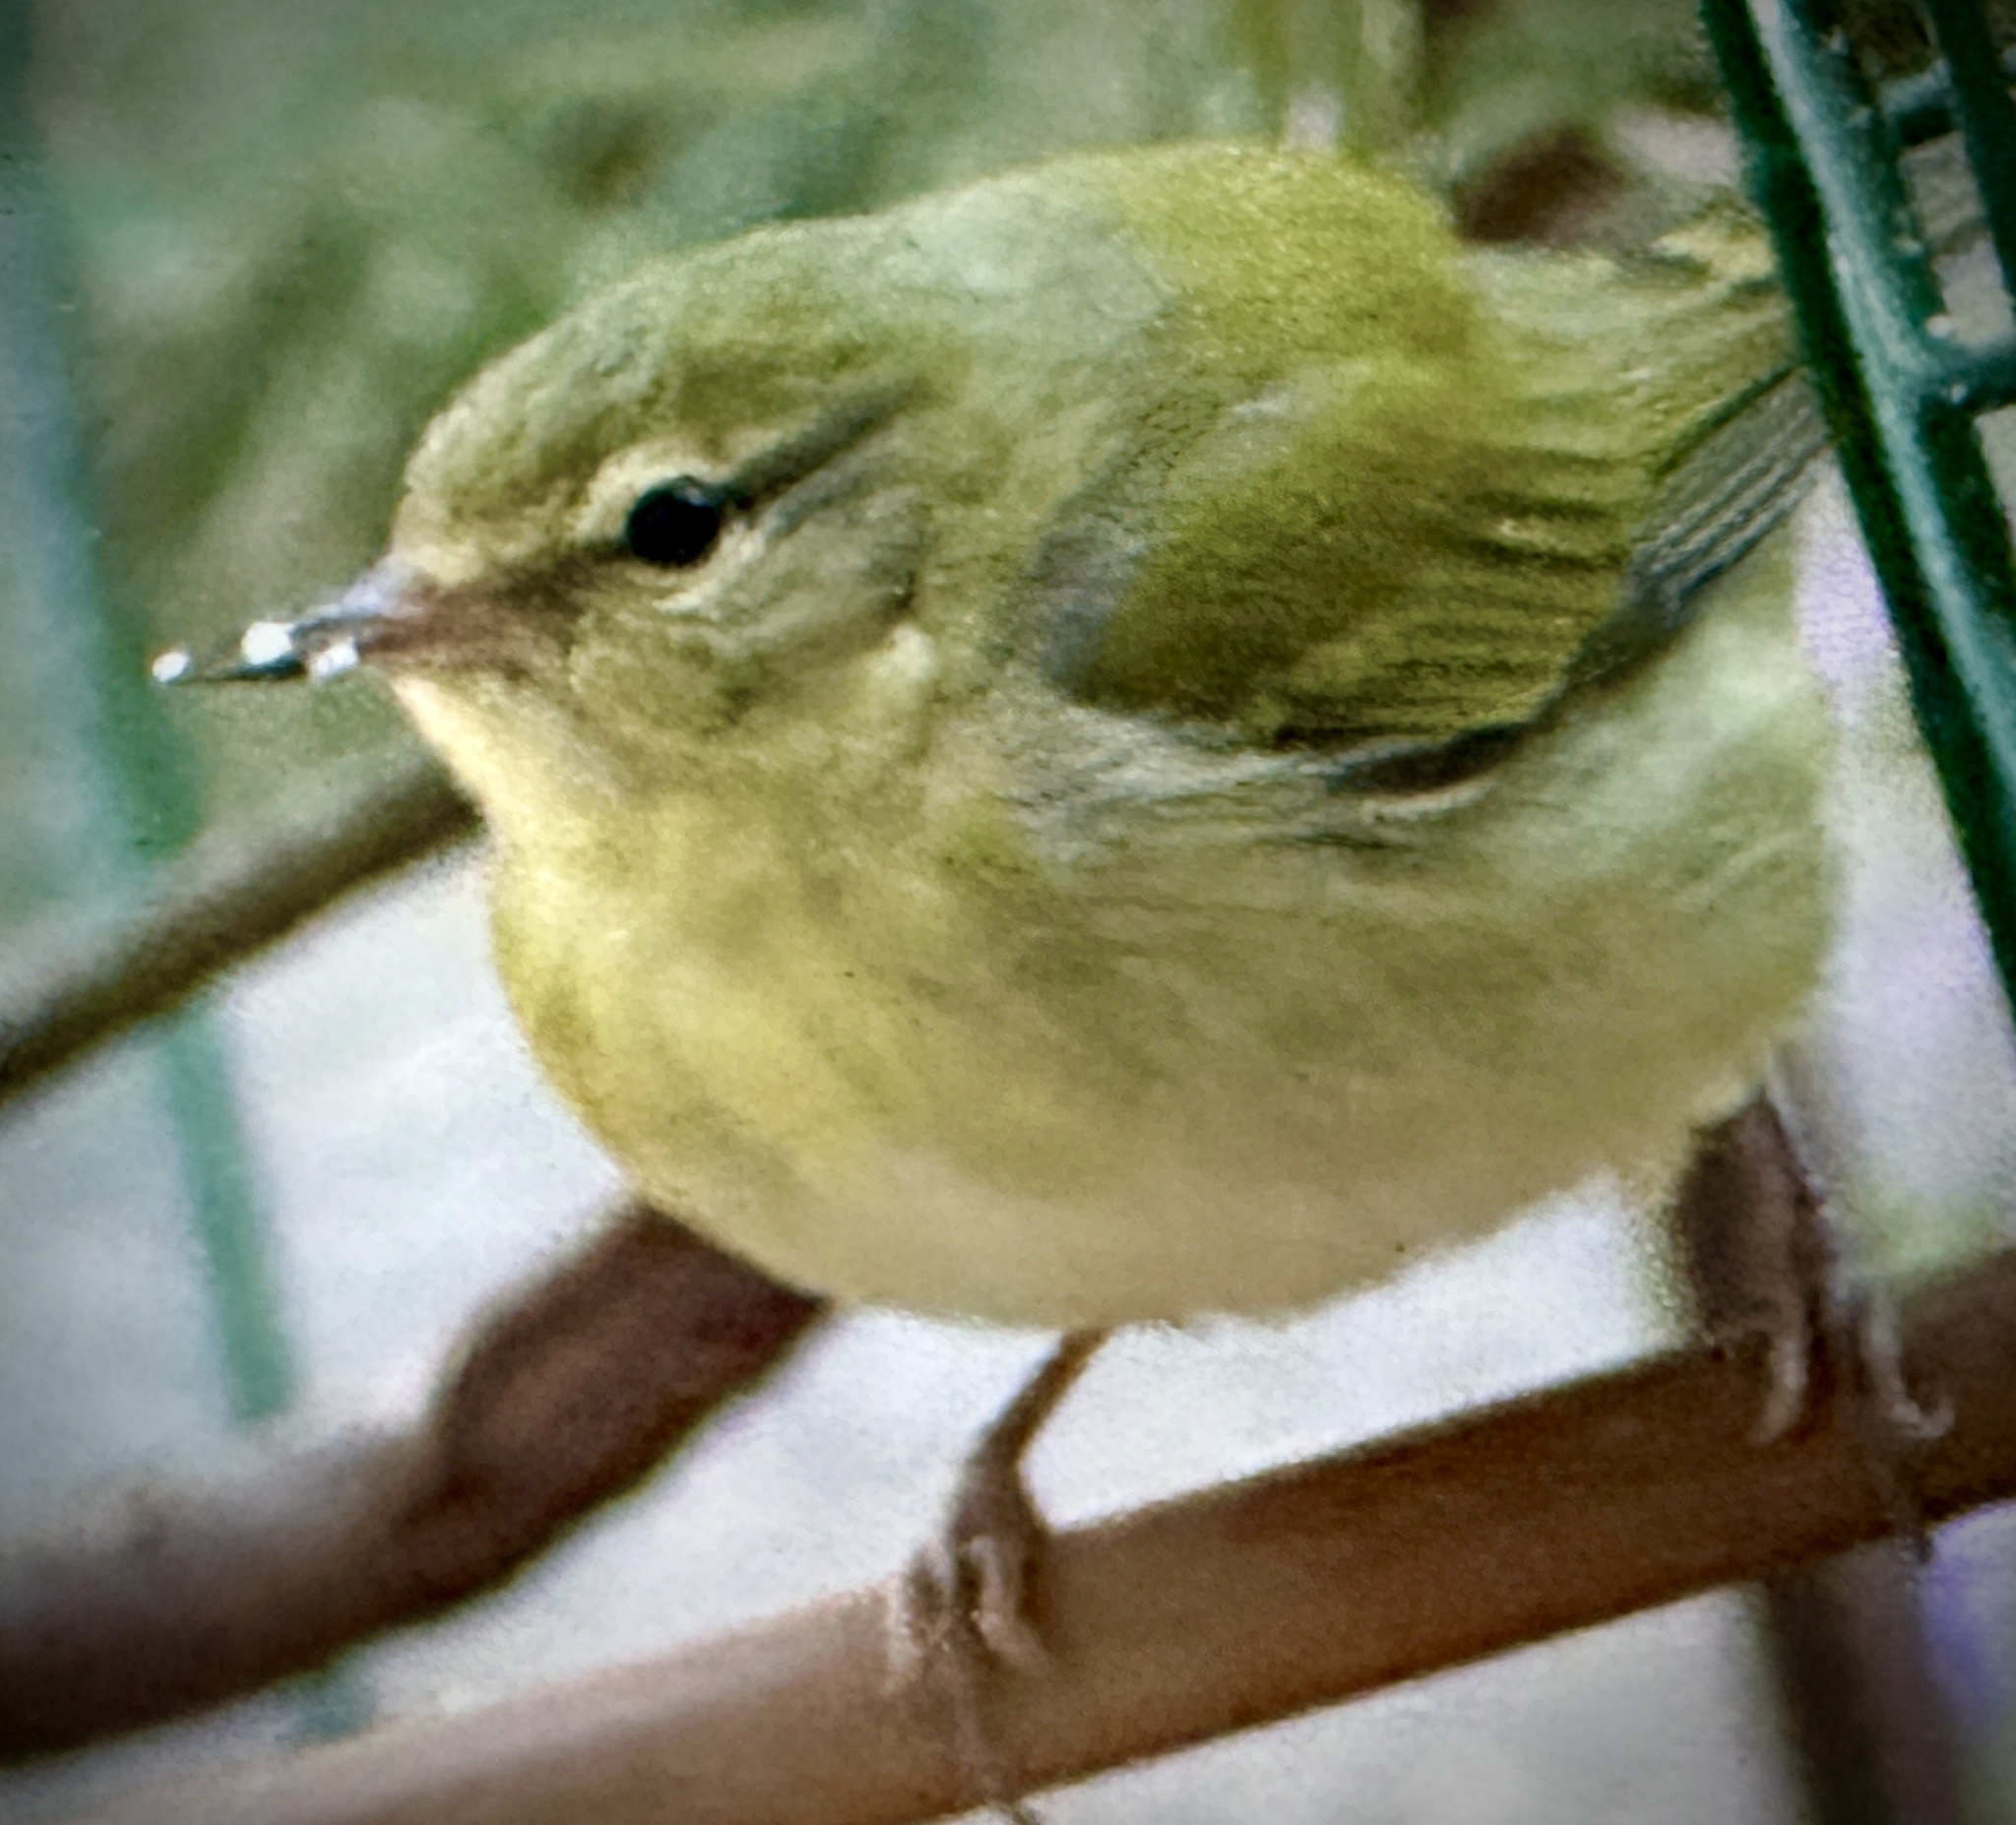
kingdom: Animalia
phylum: Chordata
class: Aves
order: Passeriformes
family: Parulidae
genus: Leiothlypis
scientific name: Leiothlypis peregrina
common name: Tennessee warbler
